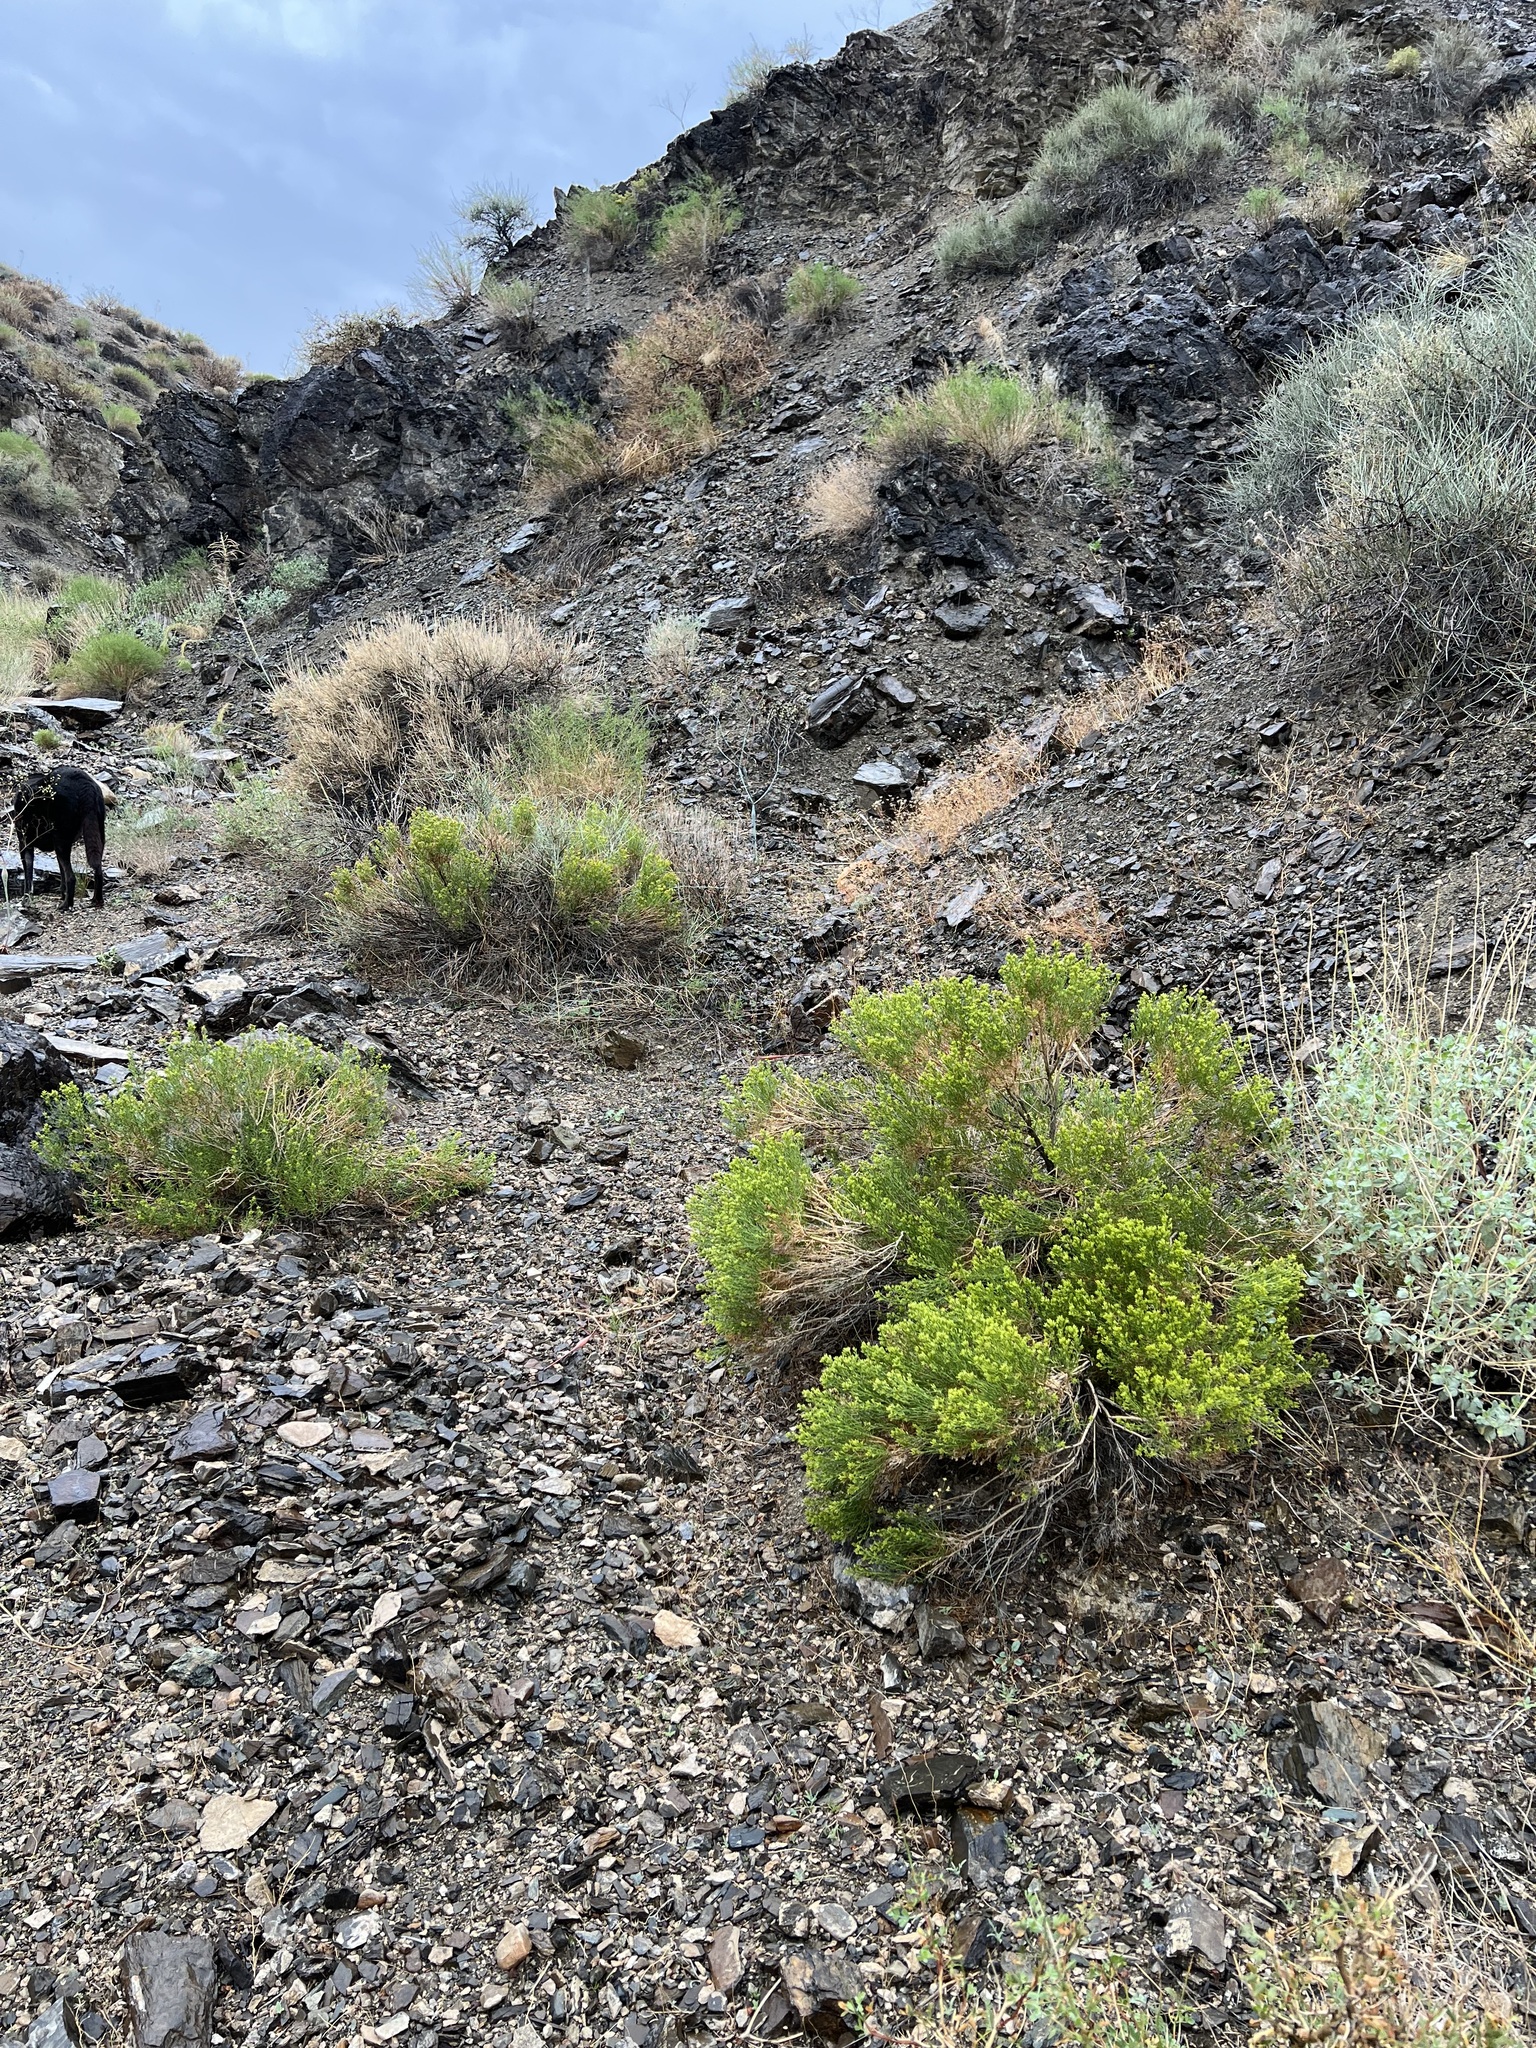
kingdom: Plantae
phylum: Tracheophyta
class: Magnoliopsida
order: Asterales
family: Asteraceae
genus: Ericameria
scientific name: Ericameria teretifolia
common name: Round-leaf rabbitbrush
